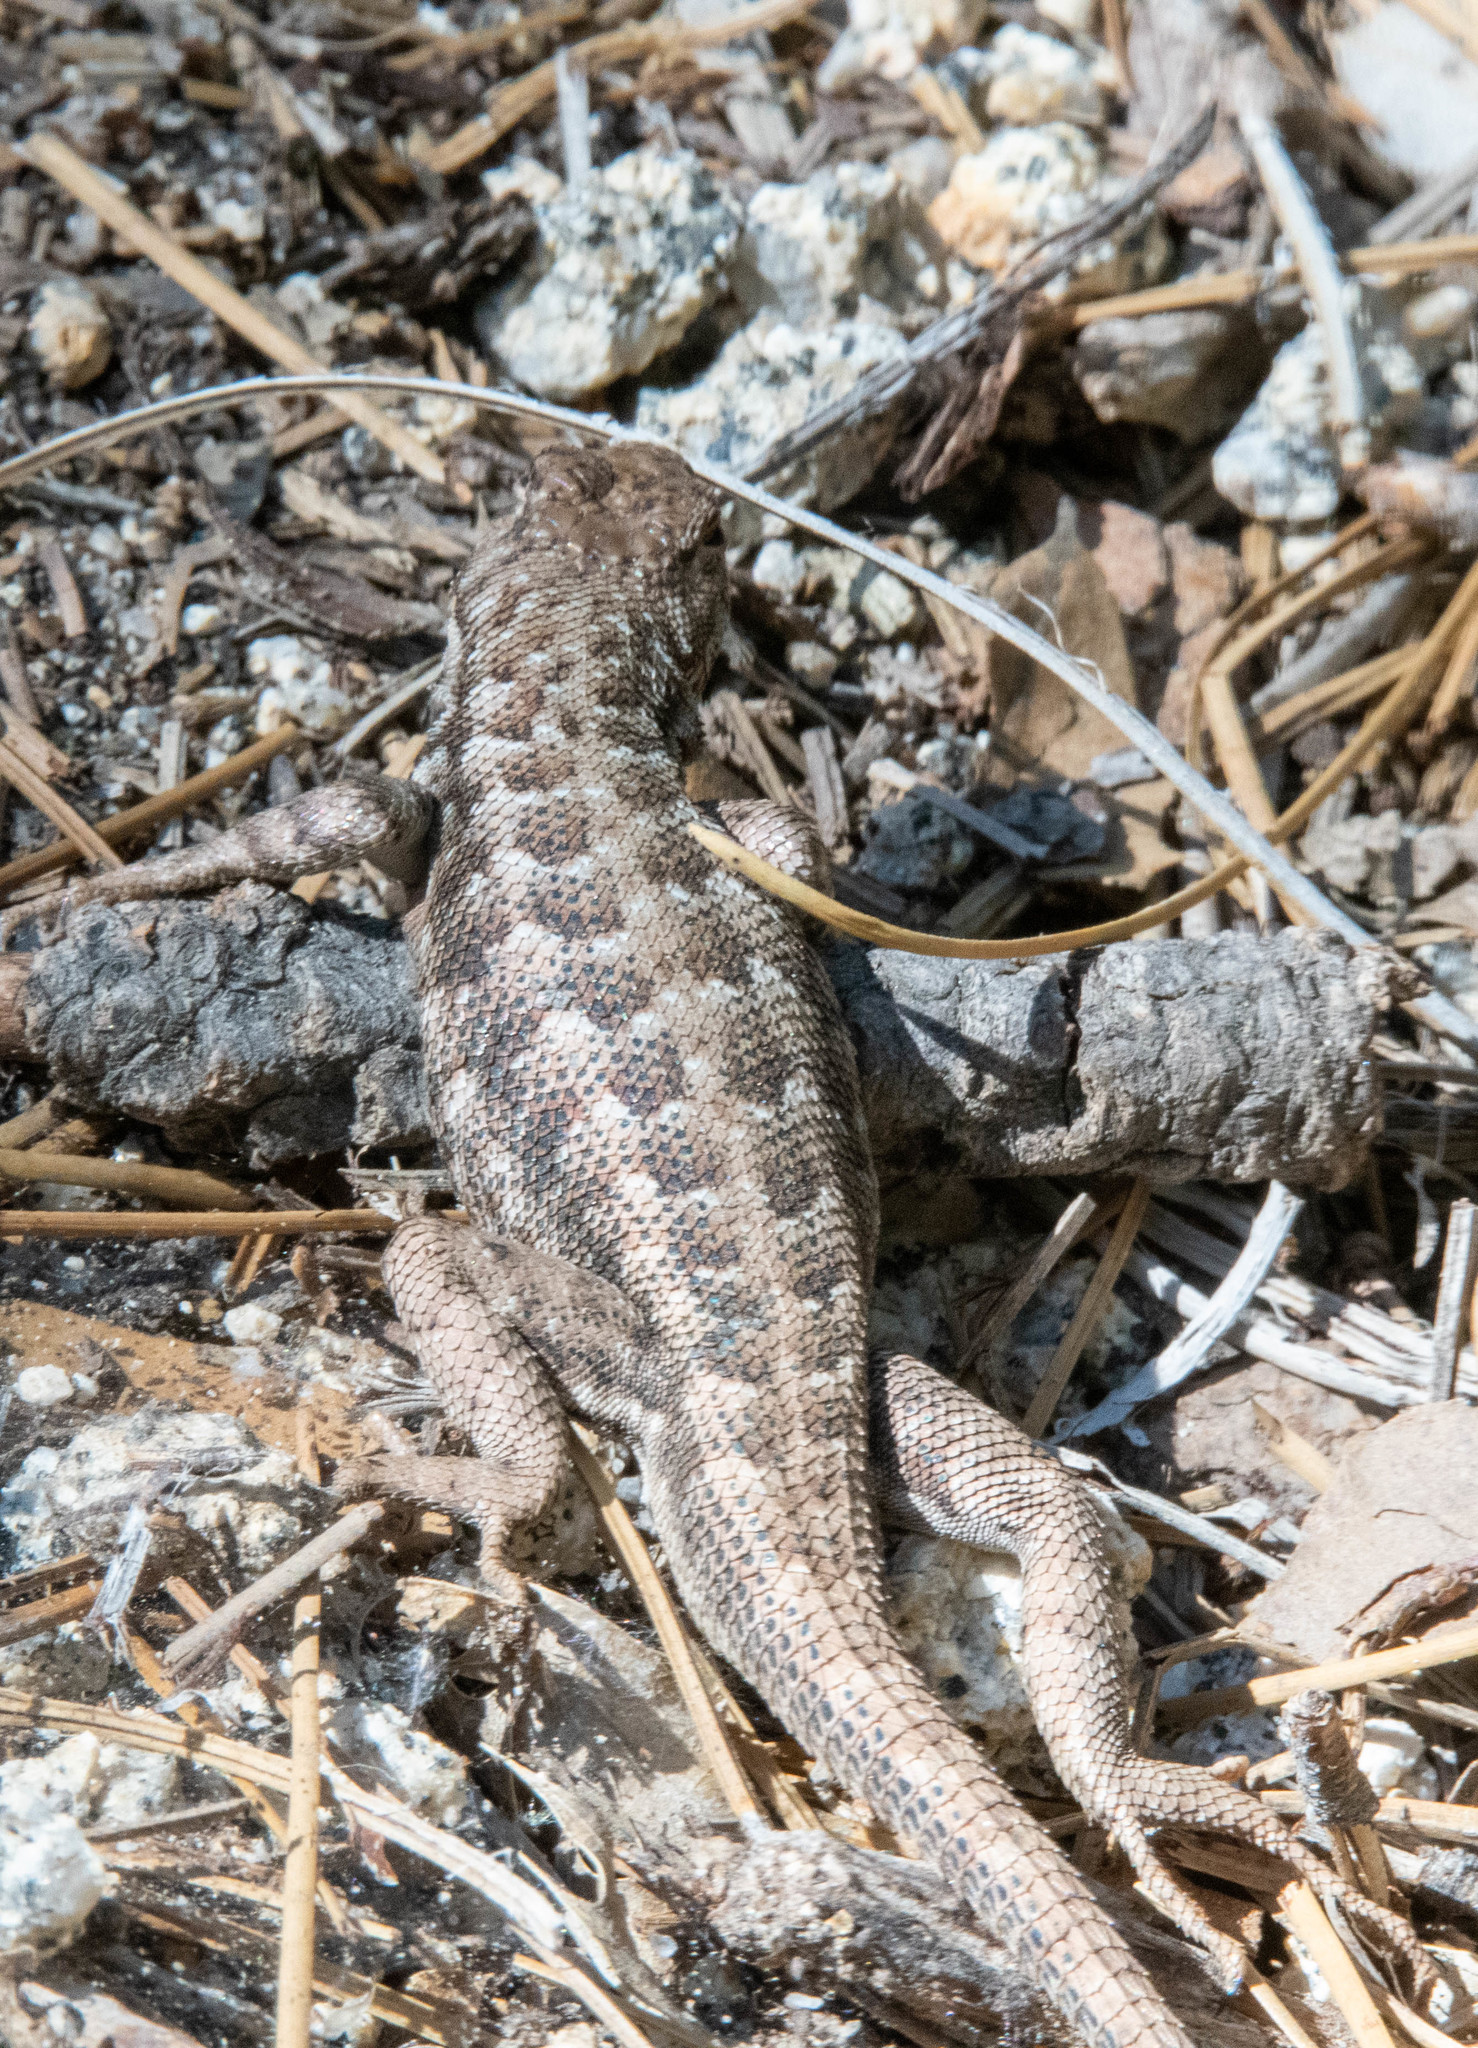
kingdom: Animalia
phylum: Chordata
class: Squamata
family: Phrynosomatidae
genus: Sceloporus
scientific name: Sceloporus graciosus
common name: Sagebrush lizard
